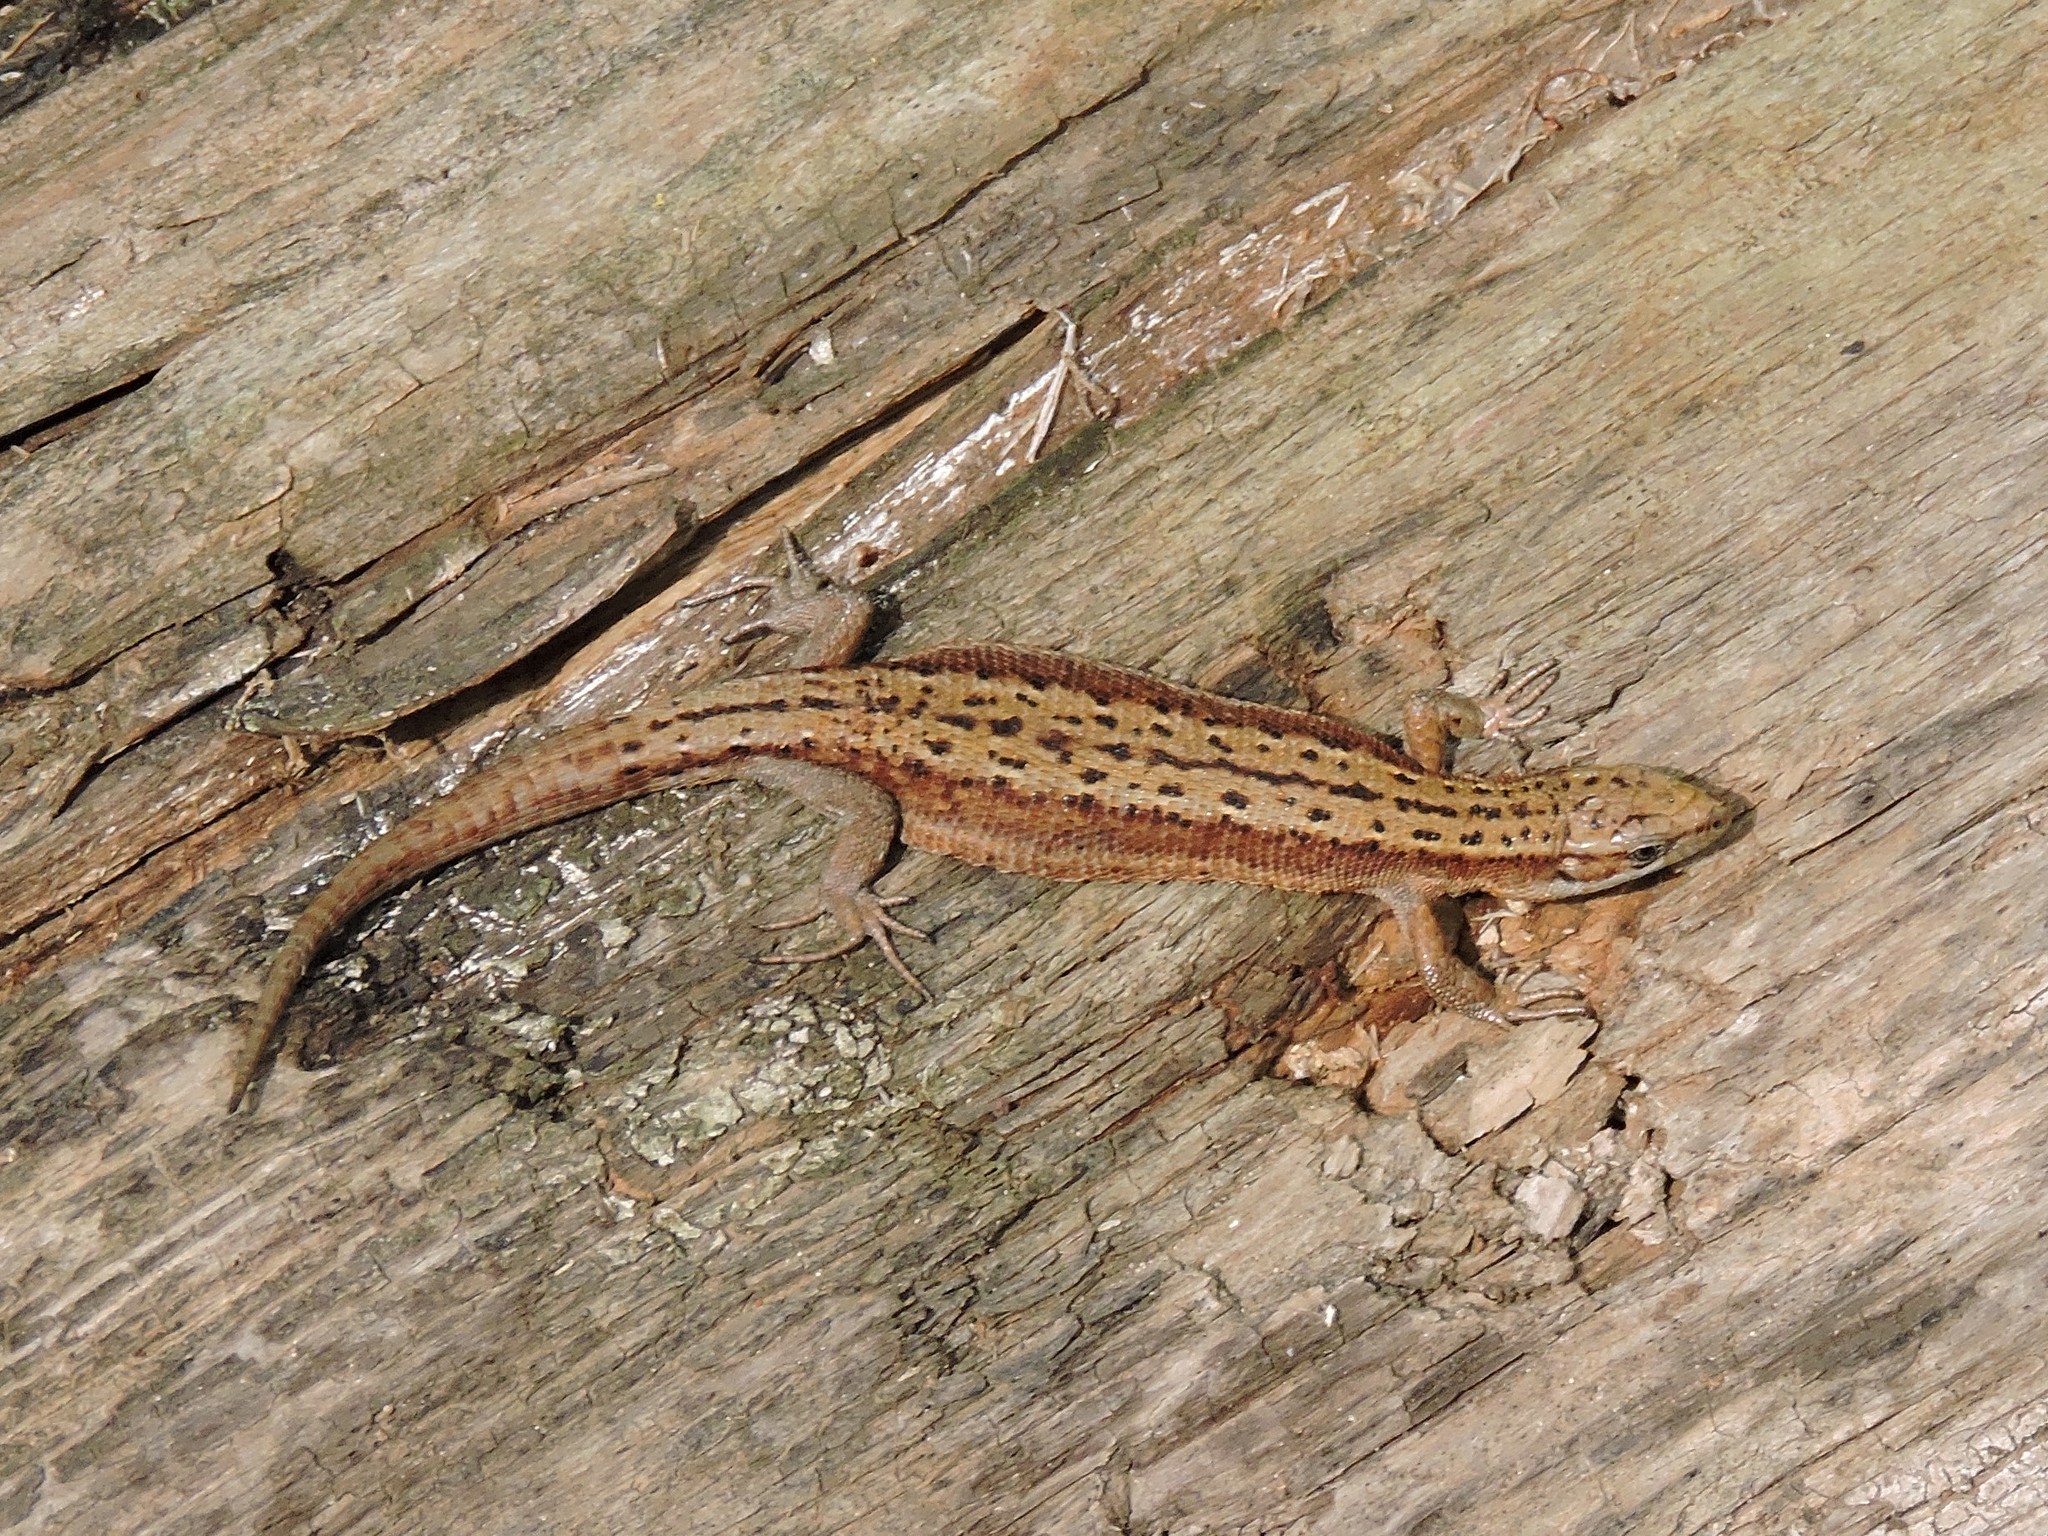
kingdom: Animalia
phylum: Chordata
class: Squamata
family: Lacertidae
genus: Zootoca
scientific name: Zootoca vivipara
